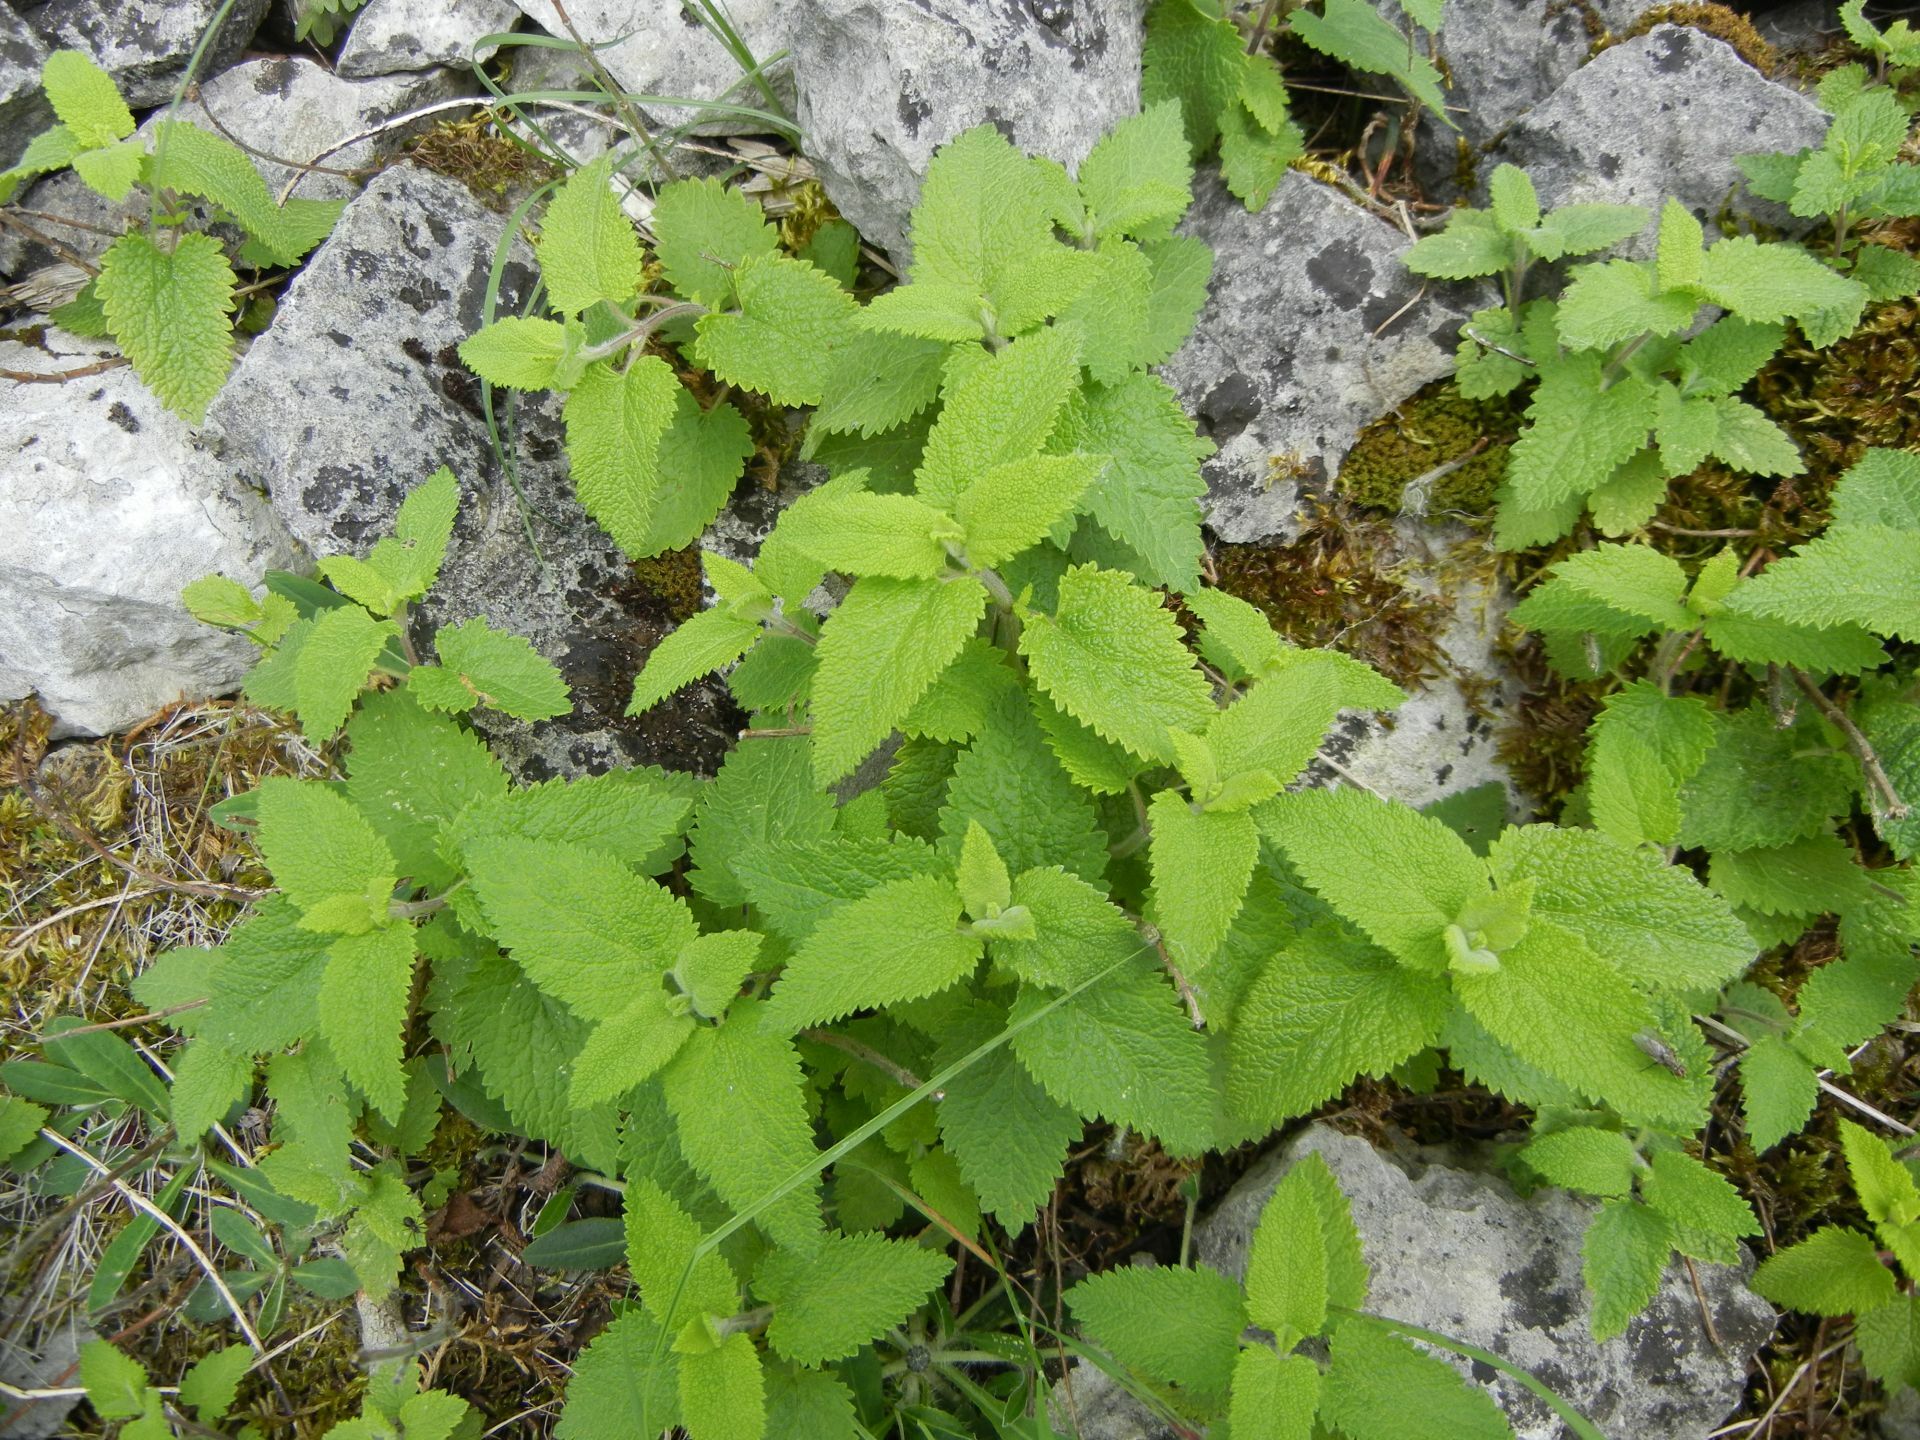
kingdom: Plantae
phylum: Tracheophyta
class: Magnoliopsida
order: Lamiales
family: Lamiaceae
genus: Teucrium
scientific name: Teucrium scorodonia
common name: Woodland germander
